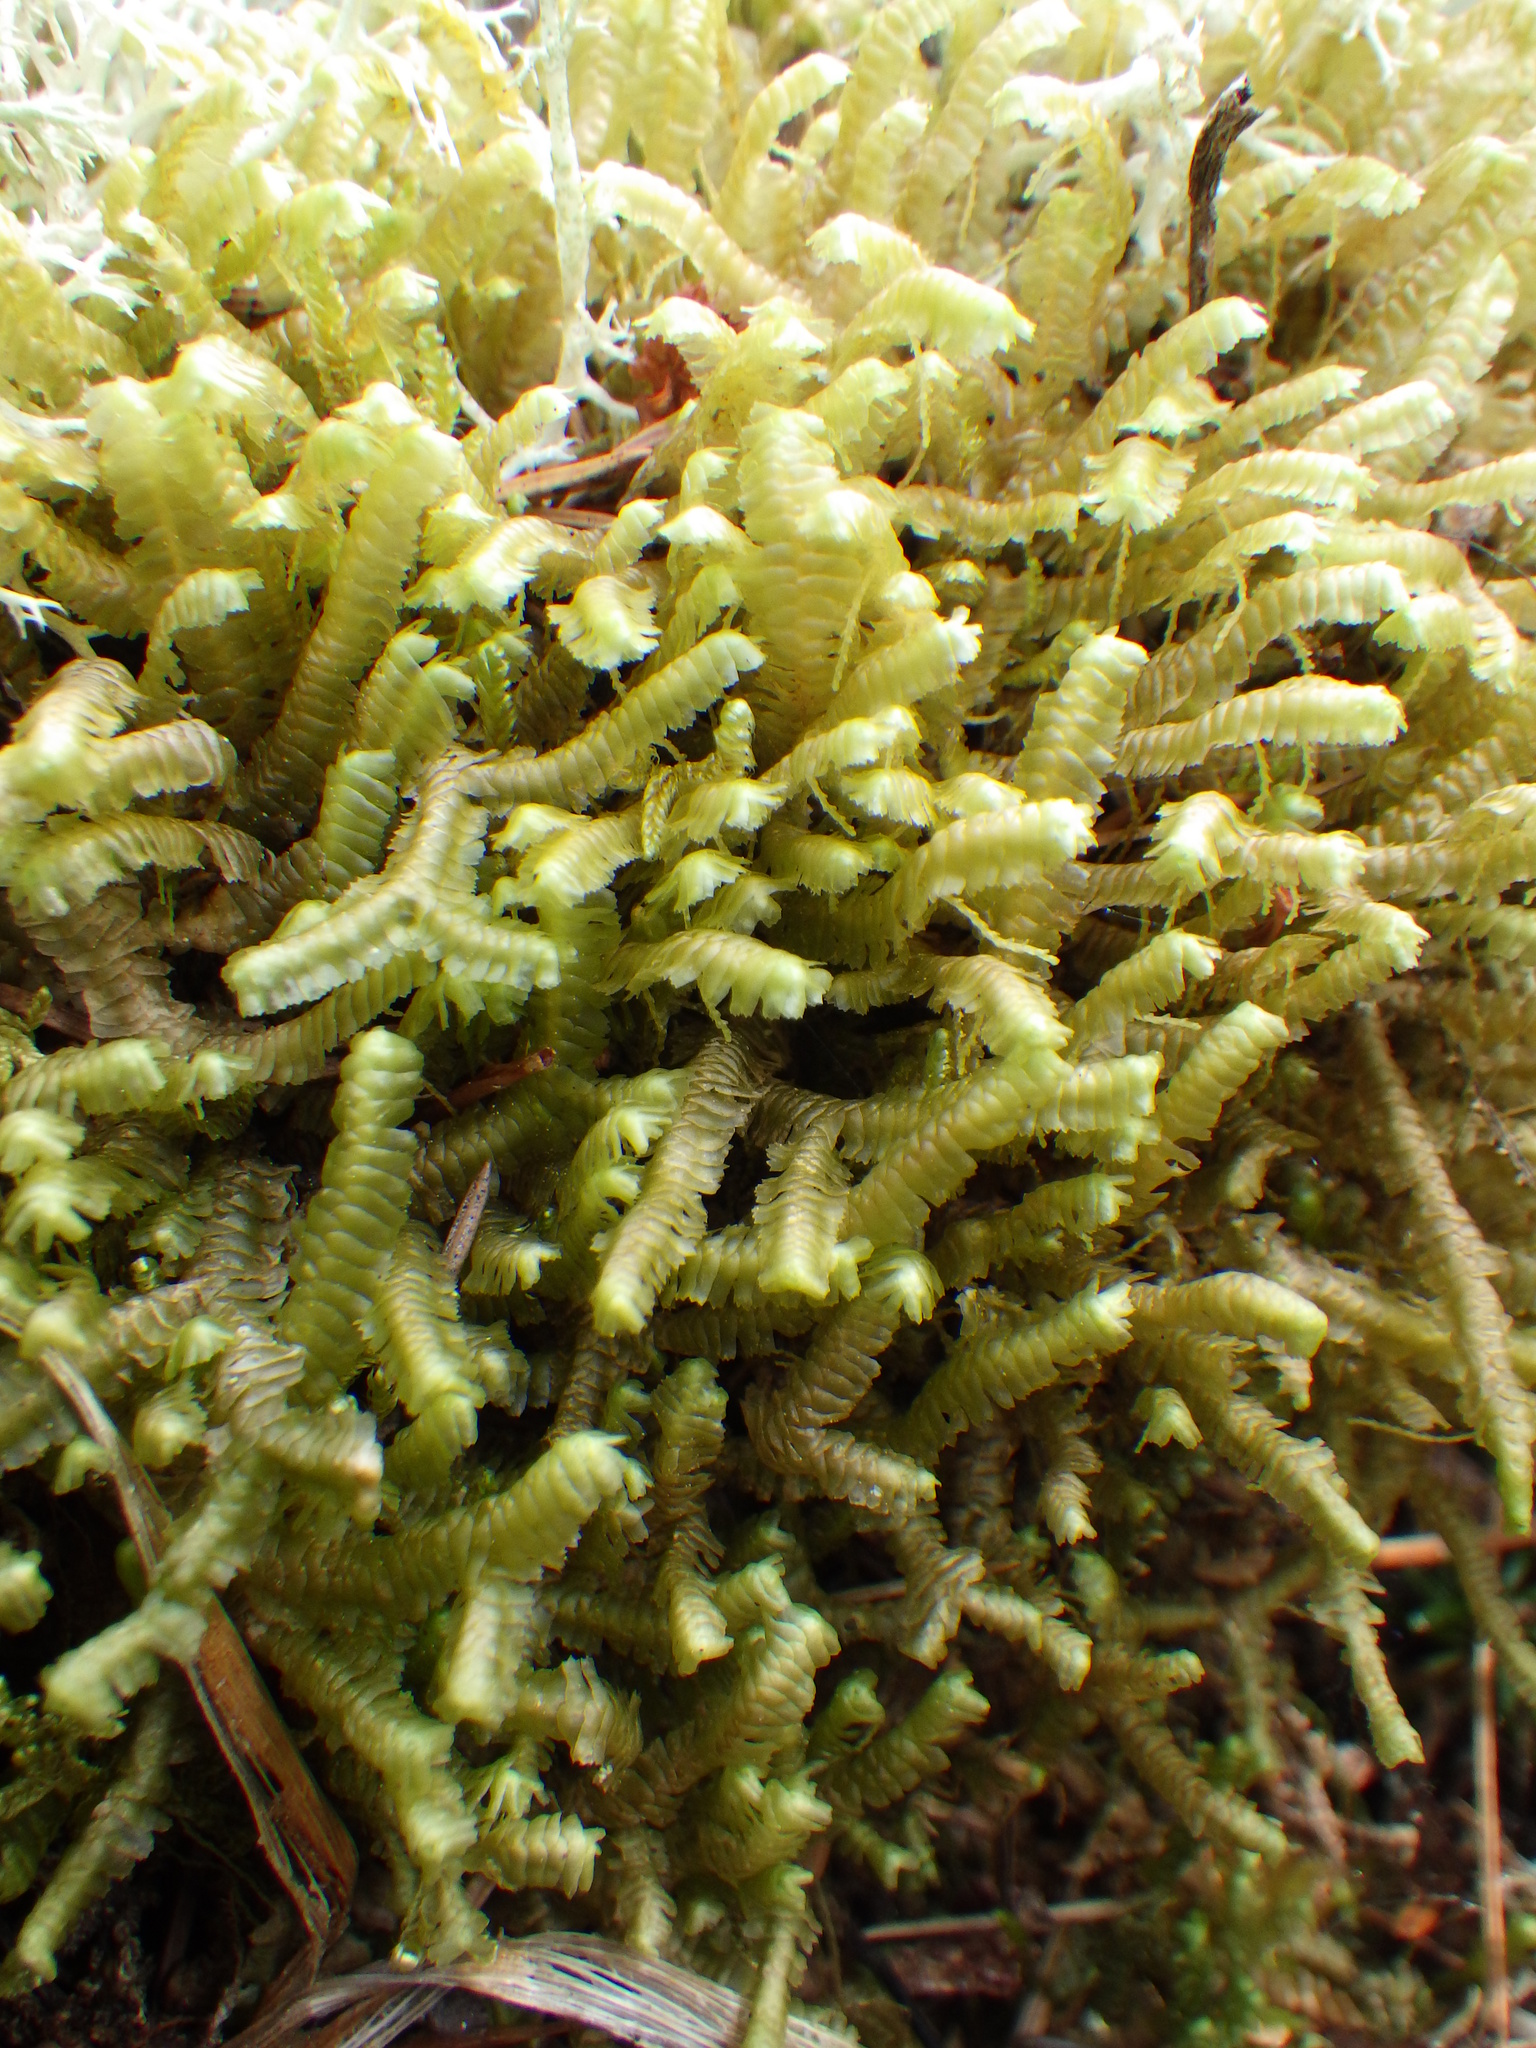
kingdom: Plantae
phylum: Marchantiophyta
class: Jungermanniopsida
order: Jungermanniales
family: Lepidoziaceae
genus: Bazzania
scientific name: Bazzania trilobata
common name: Three-lobed whipwort
